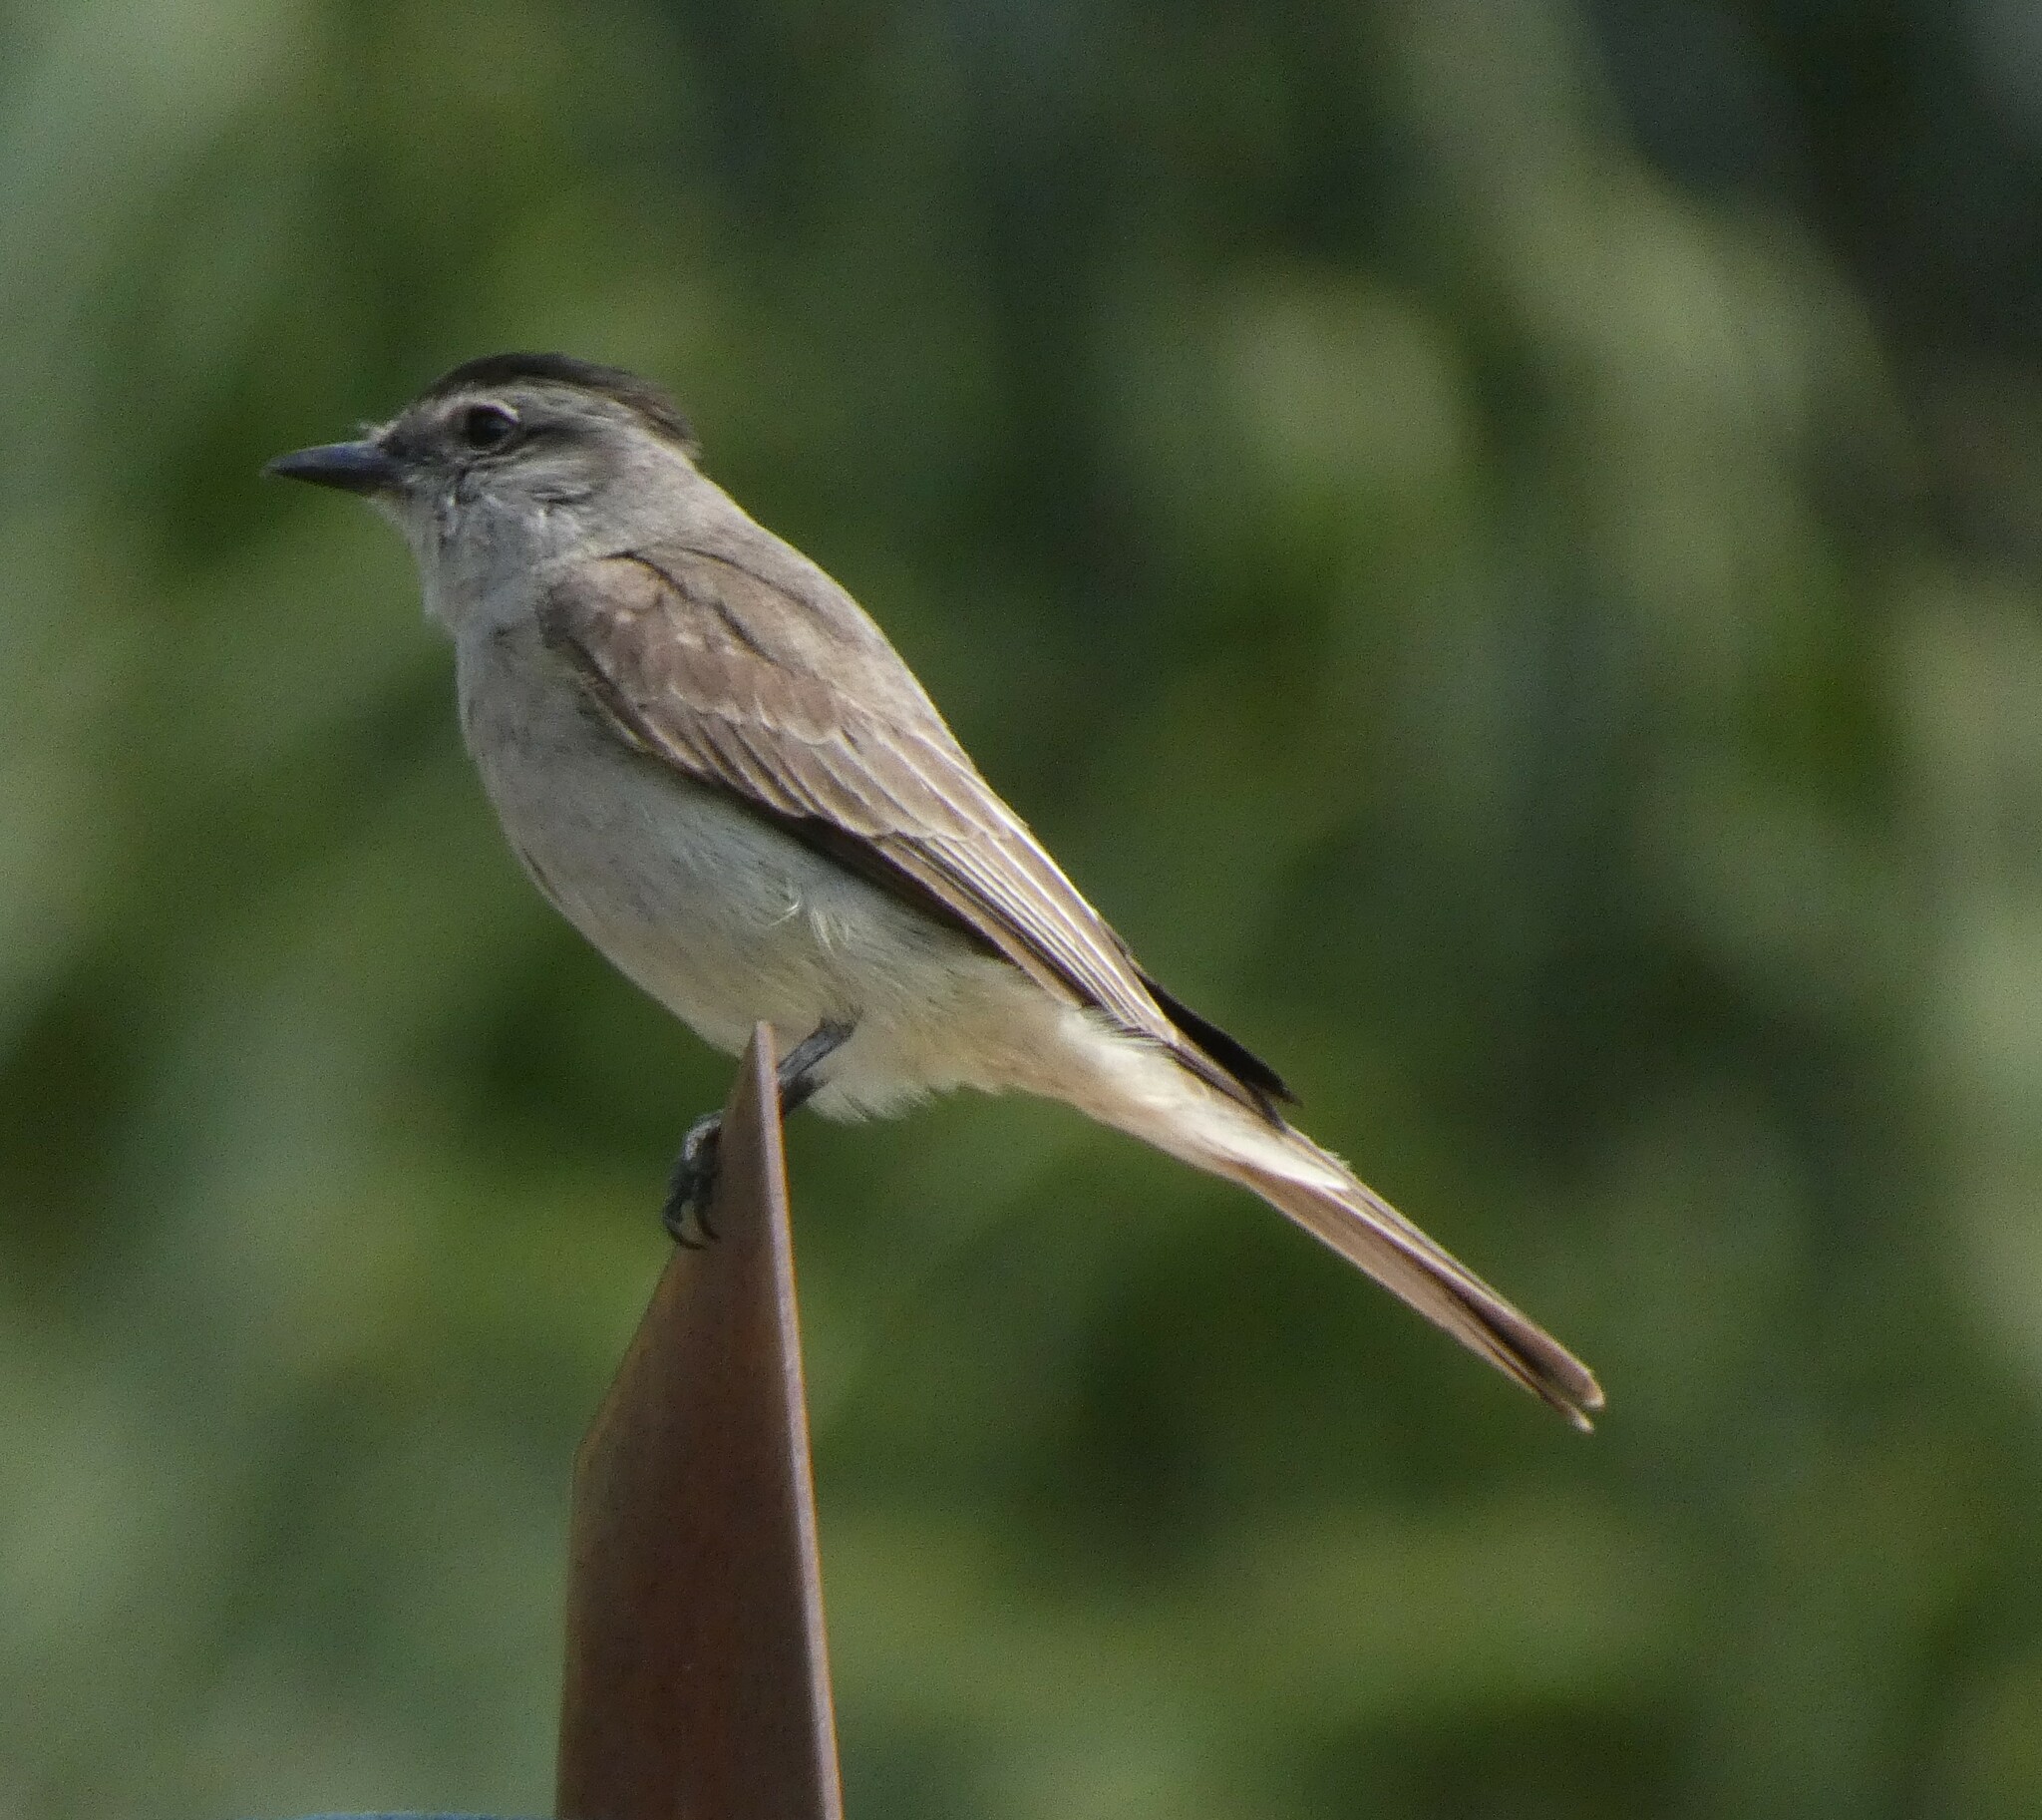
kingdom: Animalia
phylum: Chordata
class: Aves
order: Passeriformes
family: Tyrannidae
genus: Empidonomus
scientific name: Empidonomus aurantioatrocristatus
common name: Crowned slaty flycatcher
